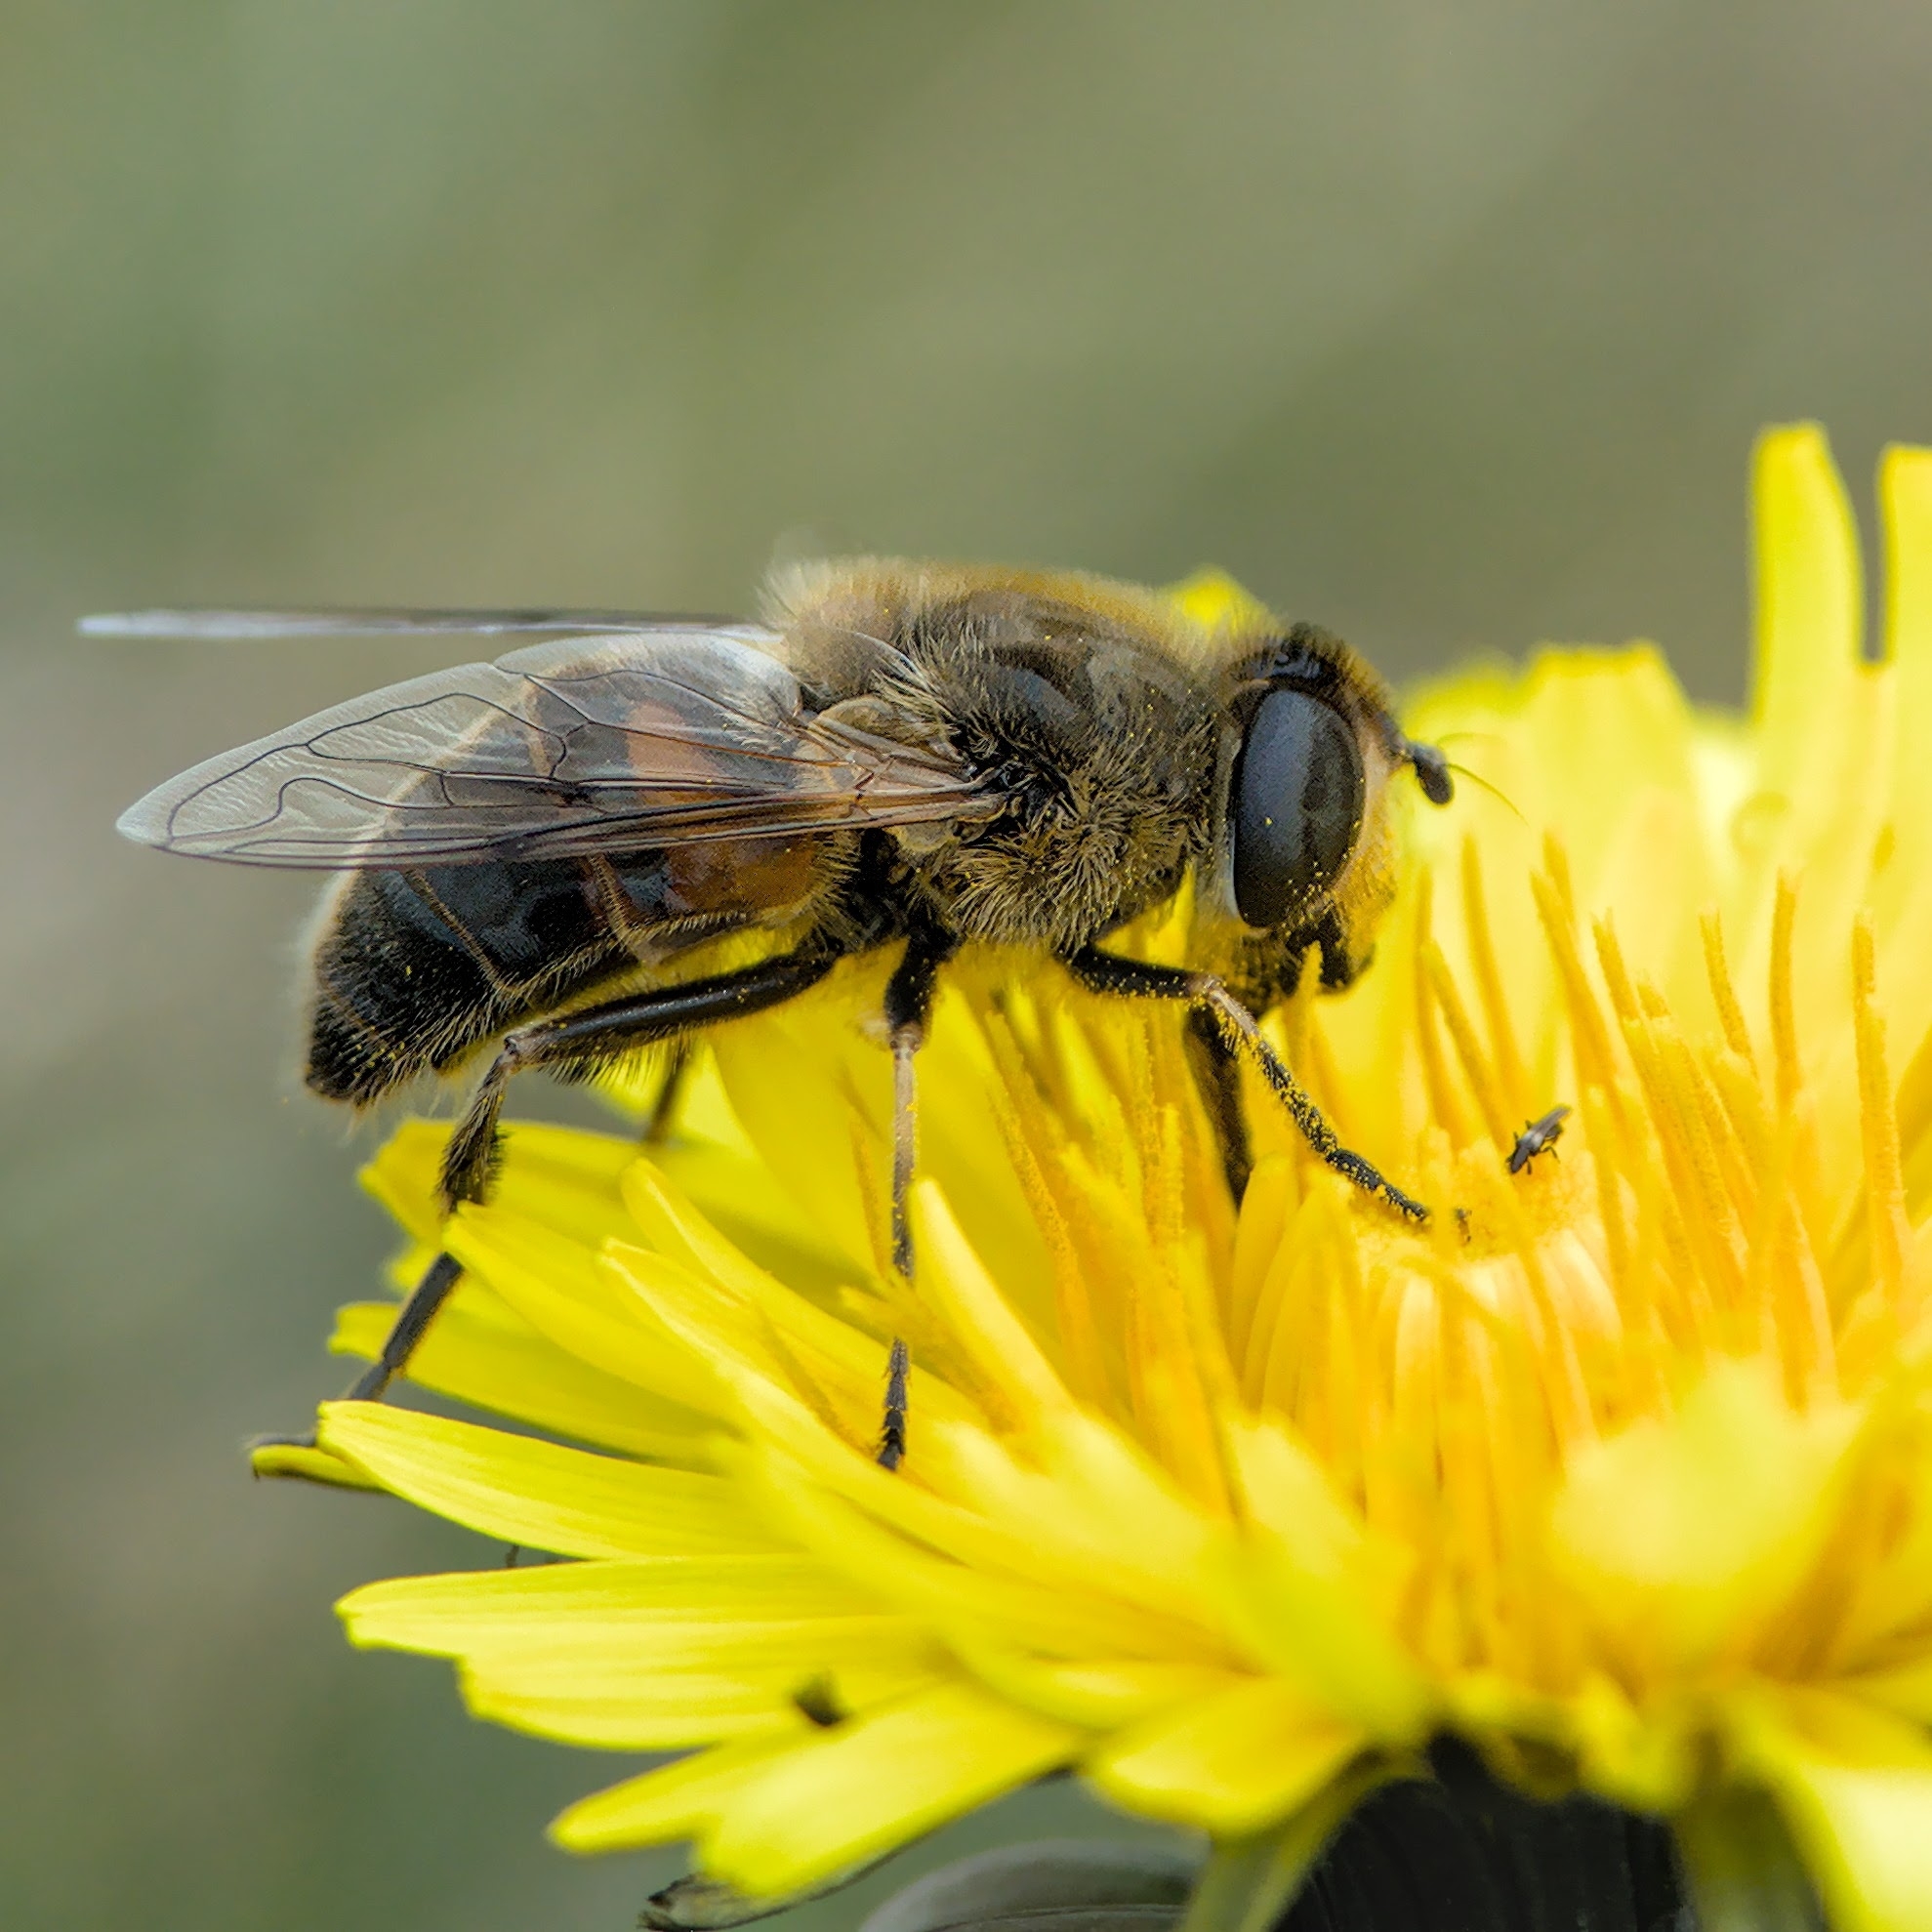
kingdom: Animalia
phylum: Arthropoda
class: Insecta
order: Diptera
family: Syrphidae
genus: Eristalis
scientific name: Eristalis tenax
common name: Drone fly
